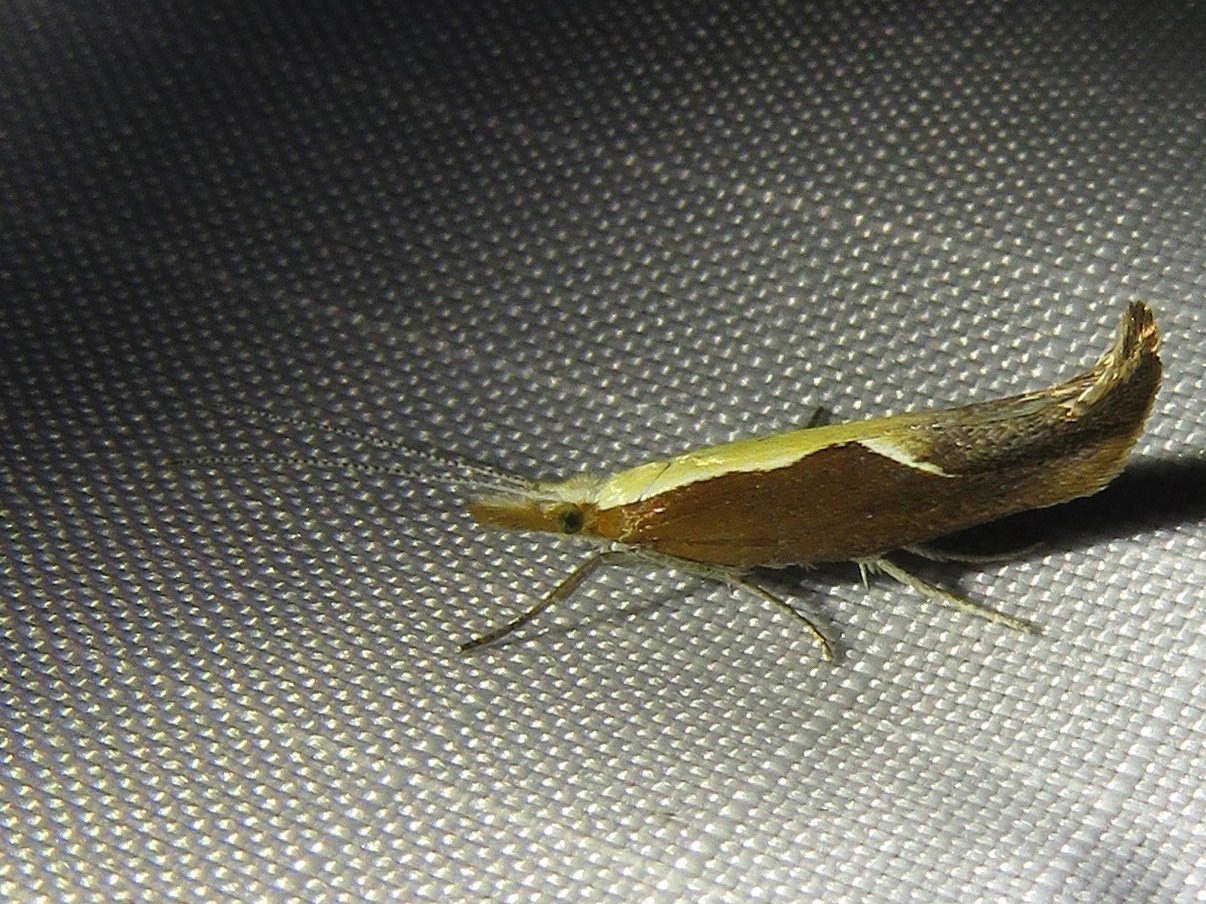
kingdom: Animalia
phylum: Arthropoda
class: Insecta
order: Lepidoptera
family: Ypsolophidae
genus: Ypsolopha
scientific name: Ypsolopha dentella
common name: Honeysuckle moth
